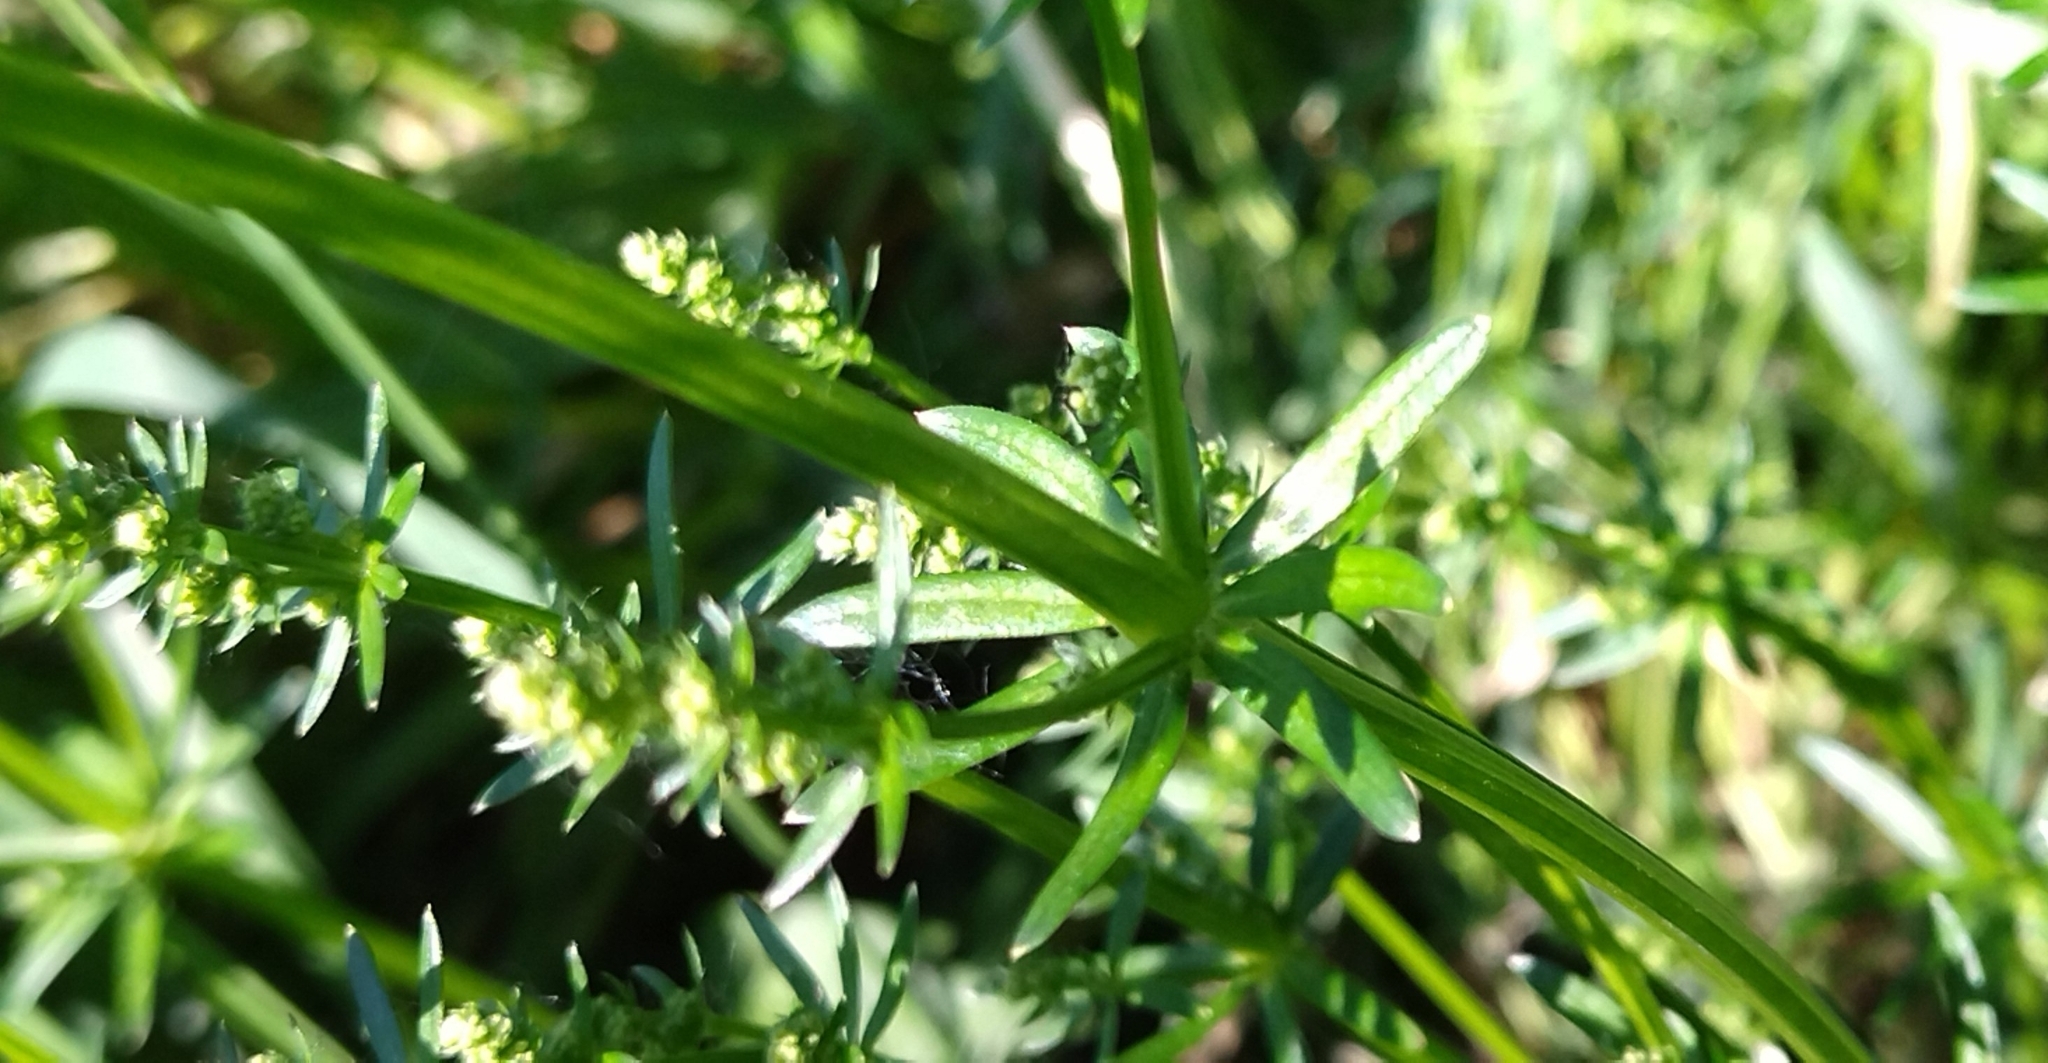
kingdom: Plantae
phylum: Tracheophyta
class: Magnoliopsida
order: Gentianales
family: Rubiaceae
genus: Galium
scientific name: Galium mollugo
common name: Hedge bedstraw
